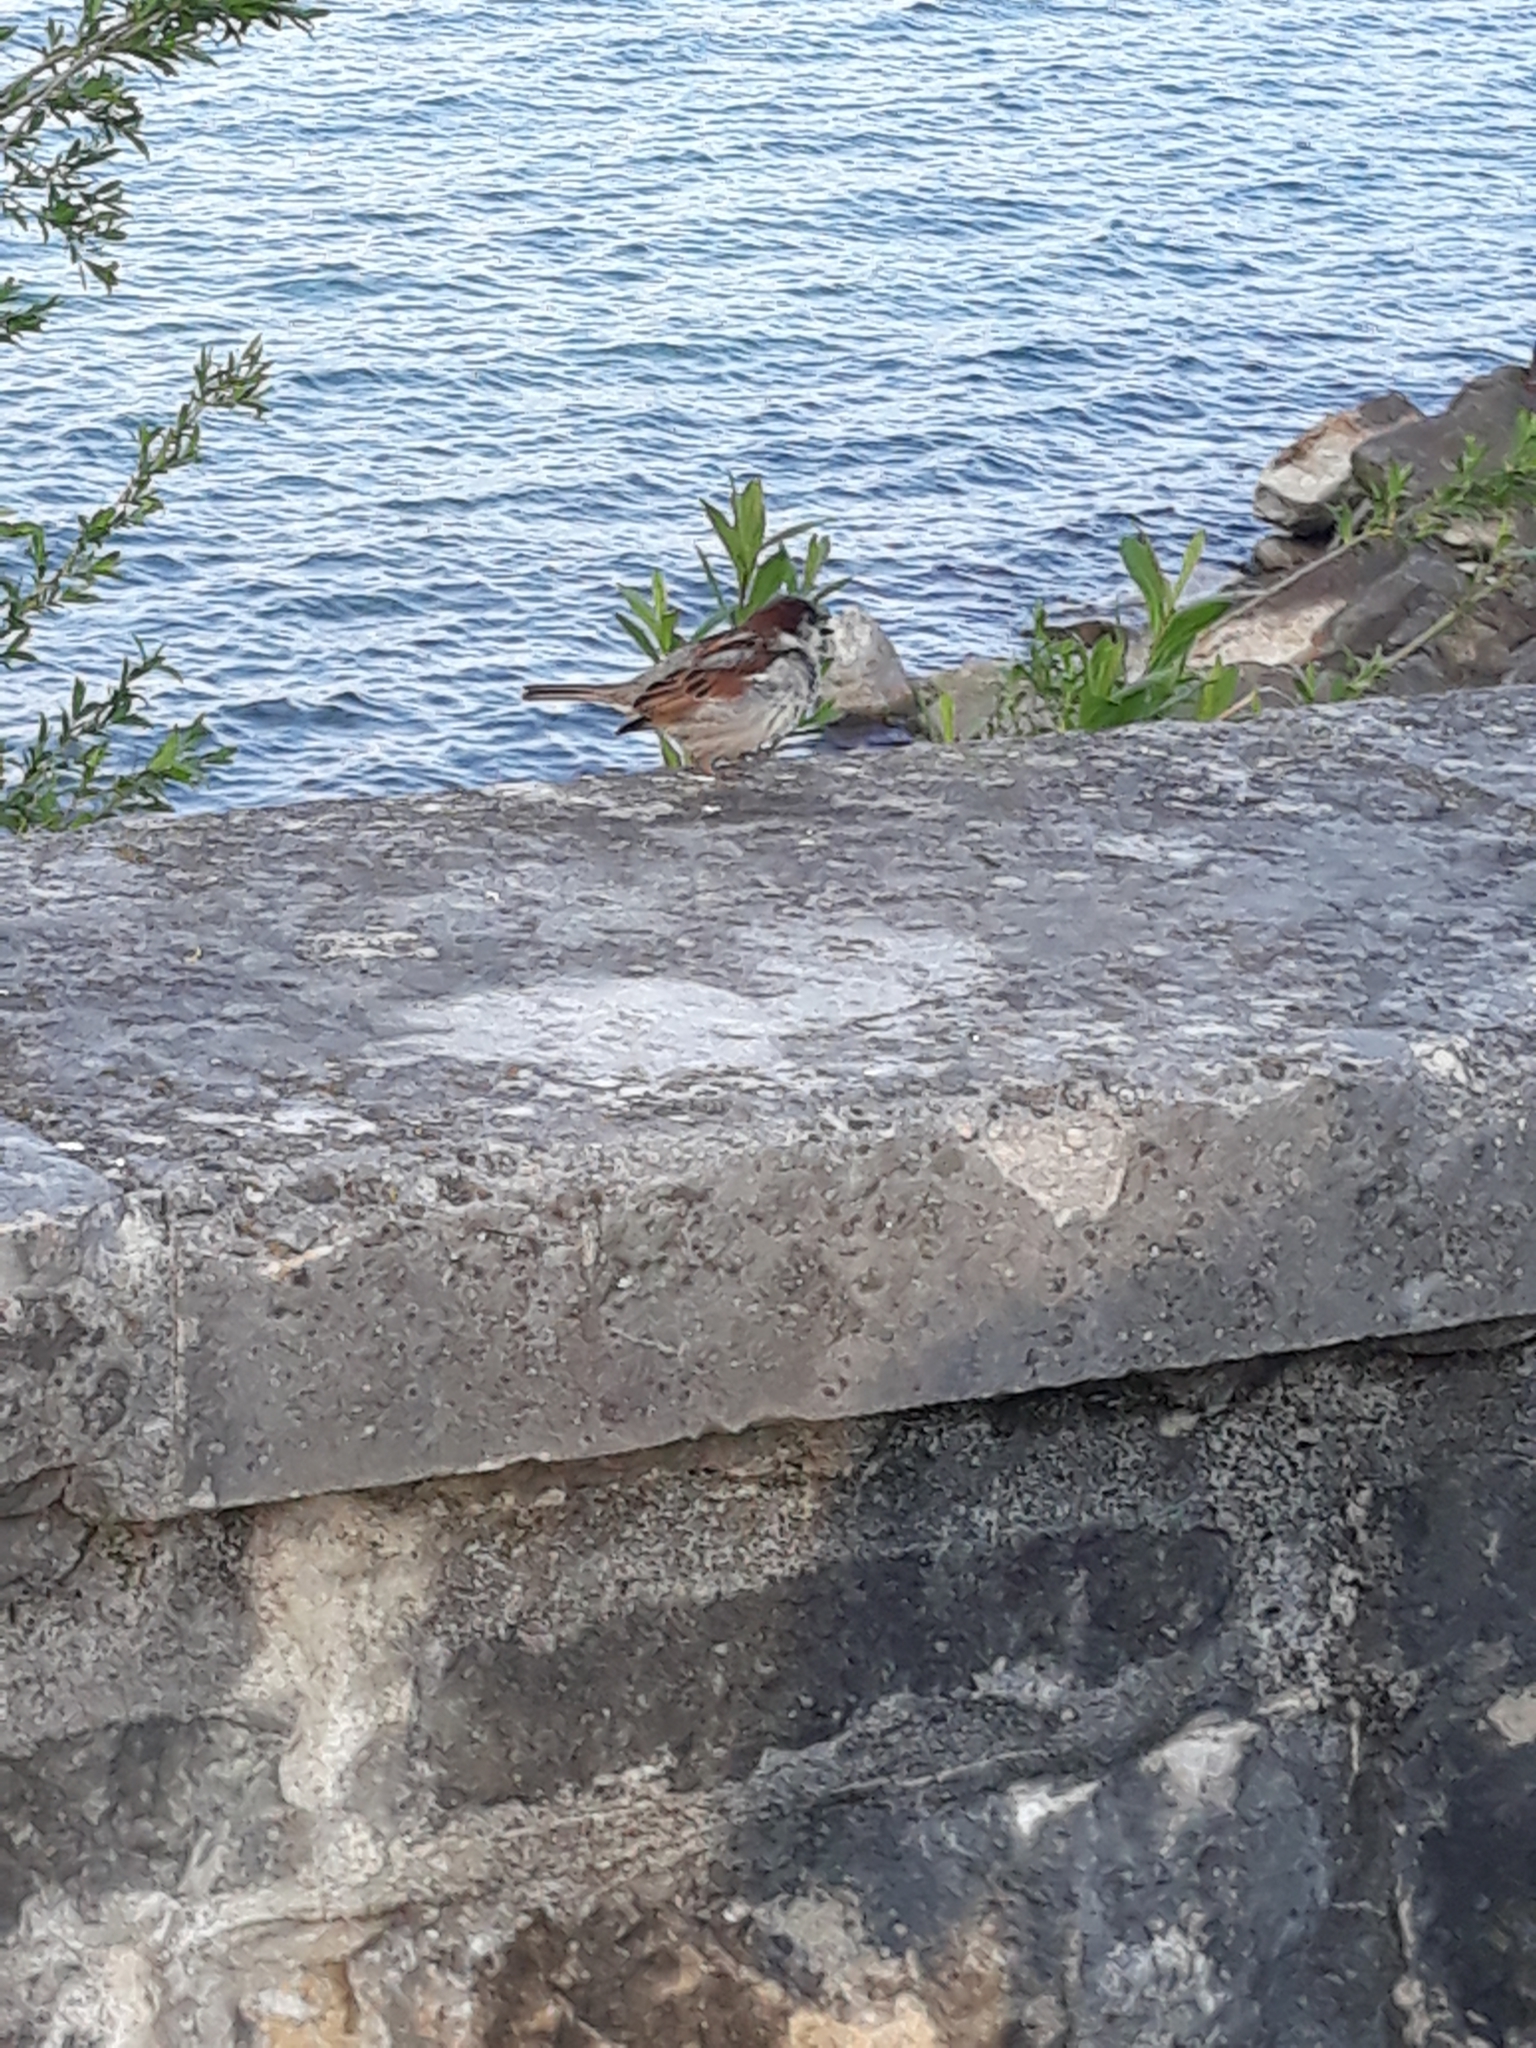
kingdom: Animalia
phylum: Chordata
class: Aves
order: Passeriformes
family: Passeridae
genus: Passer
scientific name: Passer domesticus
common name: House sparrow
